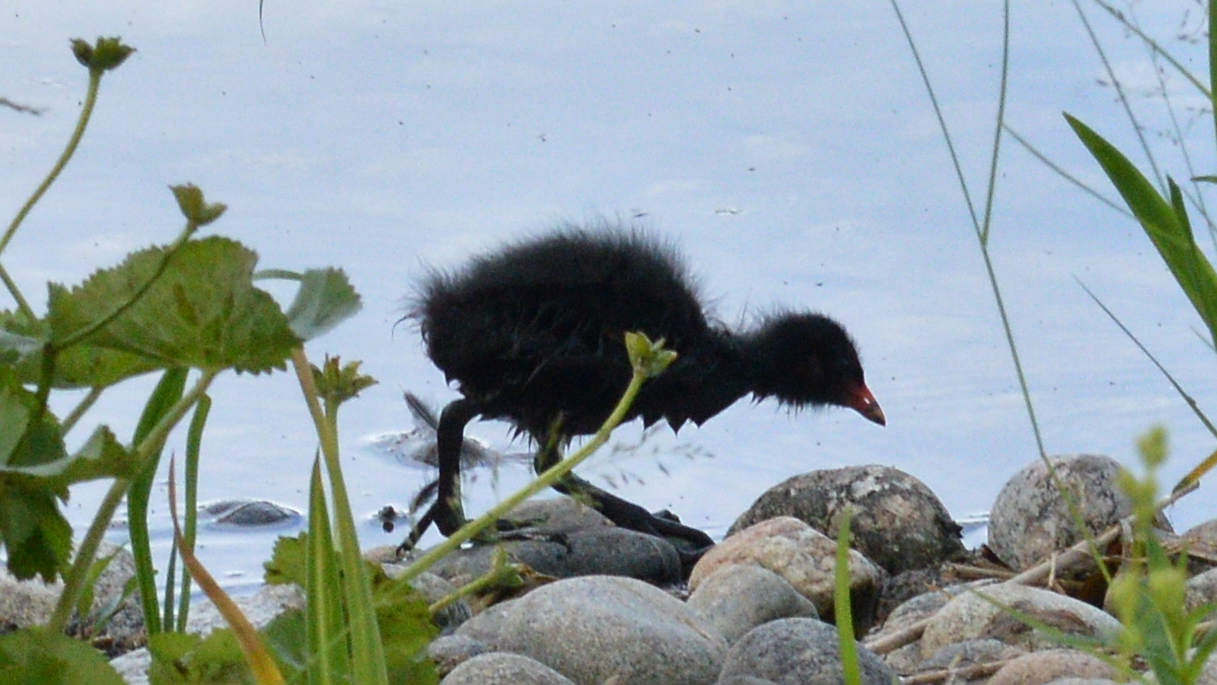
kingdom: Animalia
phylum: Chordata
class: Aves
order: Gruiformes
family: Rallidae
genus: Gallinula
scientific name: Gallinula chloropus
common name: Common moorhen
